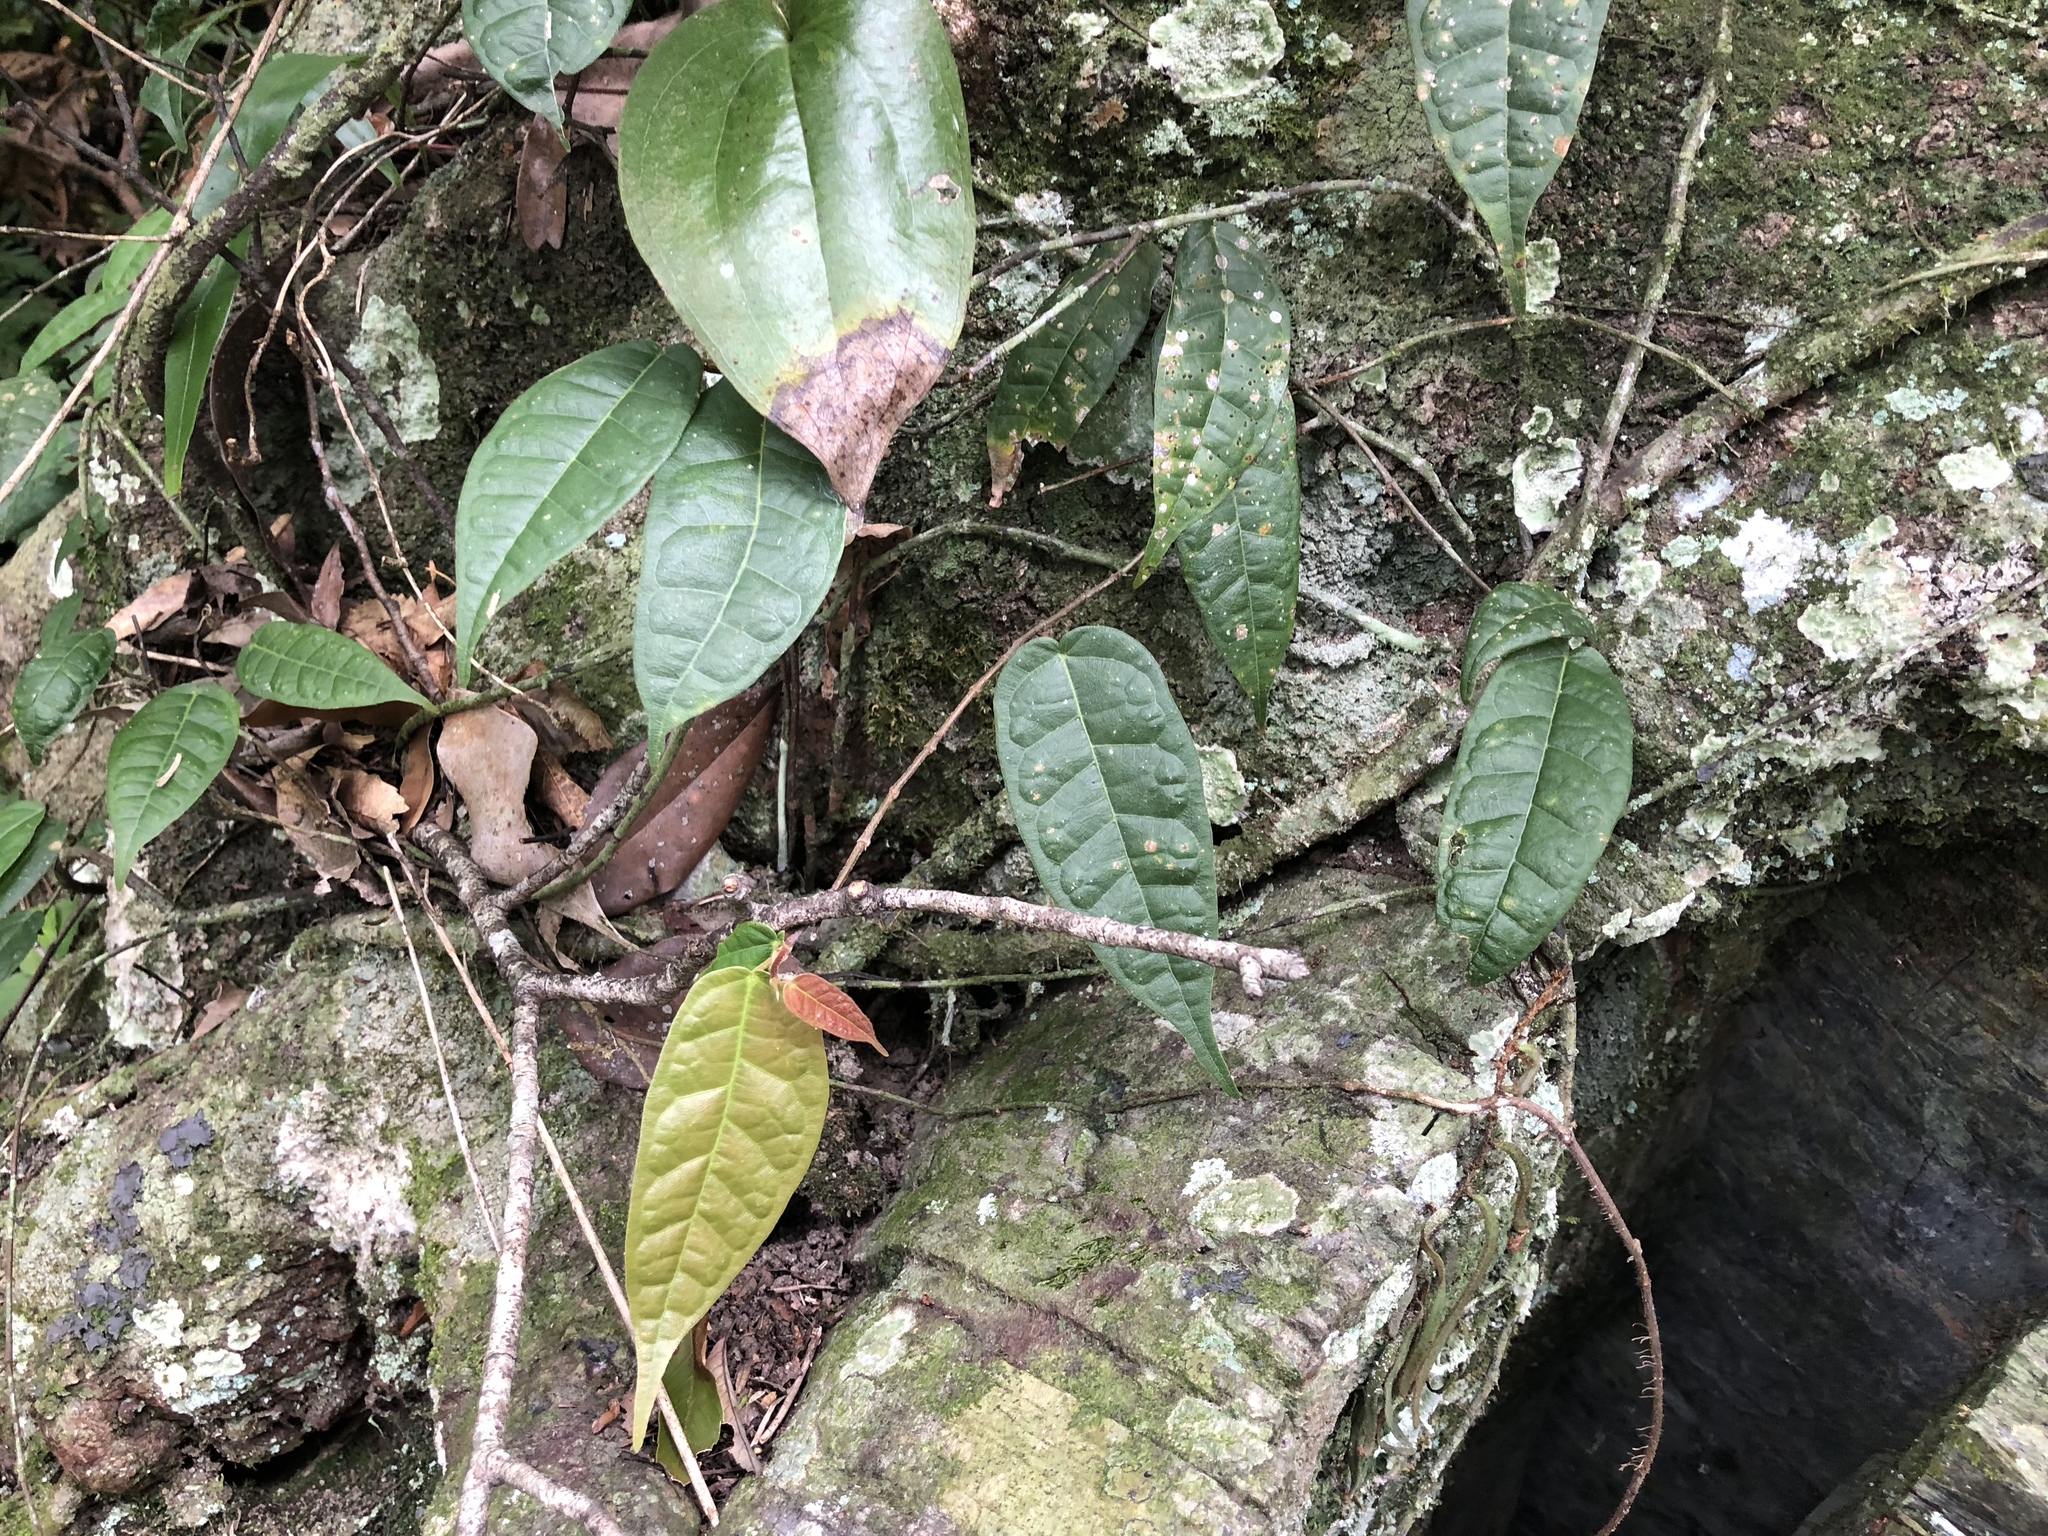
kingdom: Plantae
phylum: Tracheophyta
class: Magnoliopsida
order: Rosales
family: Moraceae
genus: Ficus
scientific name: Ficus sarmentosa
